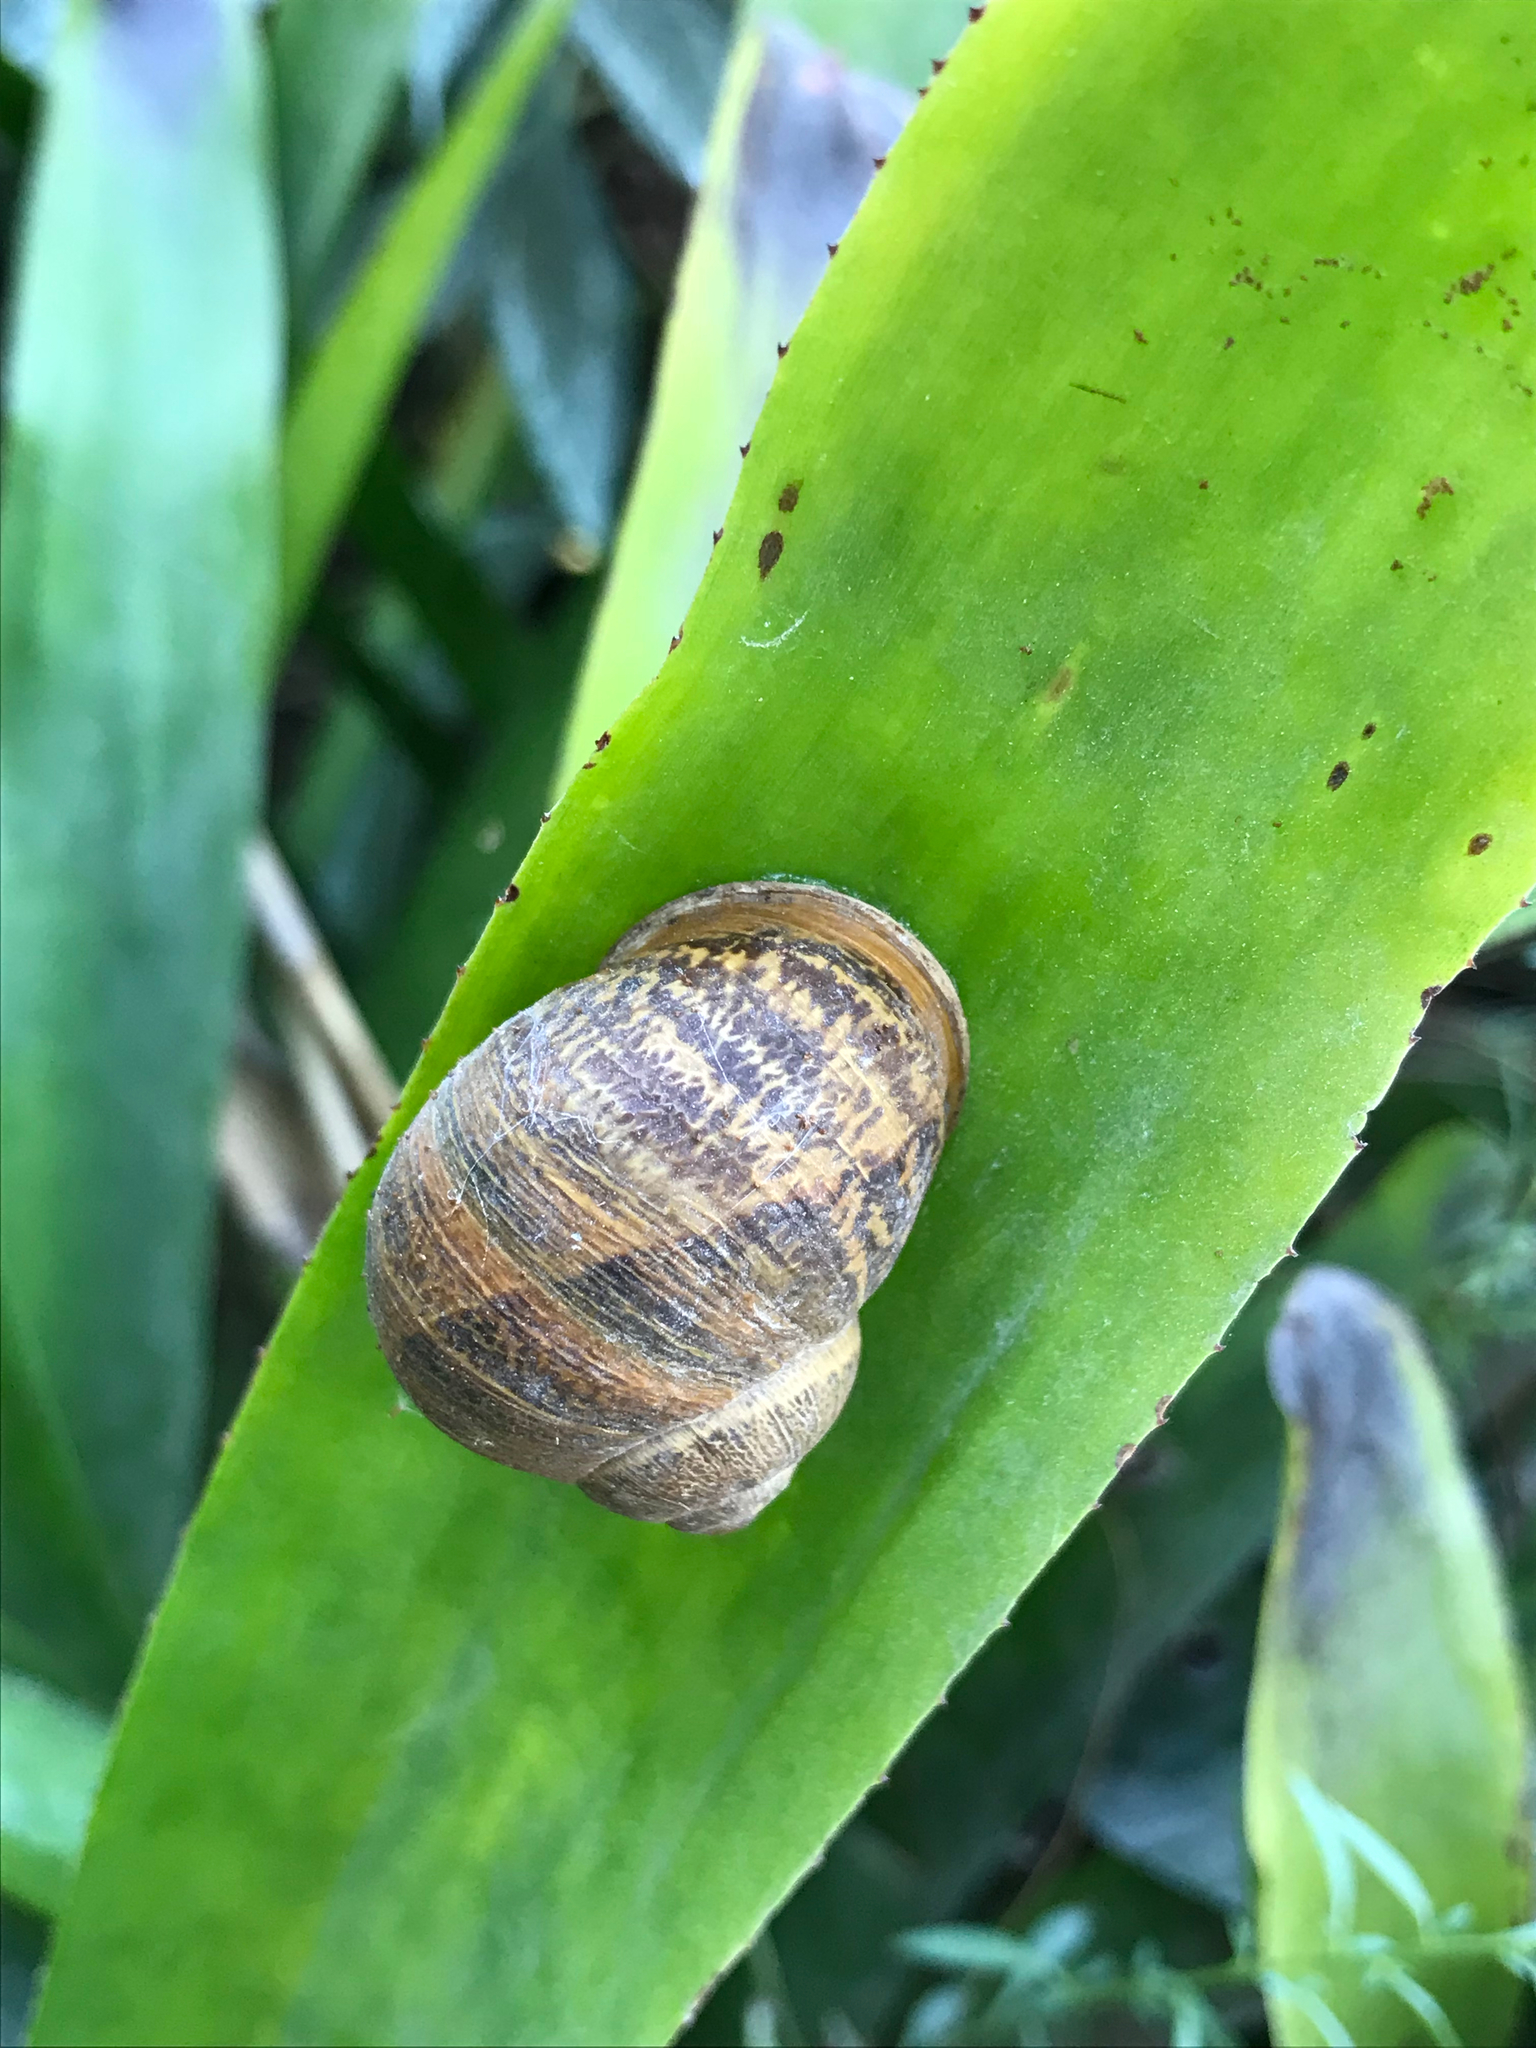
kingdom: Animalia
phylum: Mollusca
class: Gastropoda
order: Stylommatophora
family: Helicidae
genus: Cornu
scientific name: Cornu aspersum
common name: Brown garden snail
